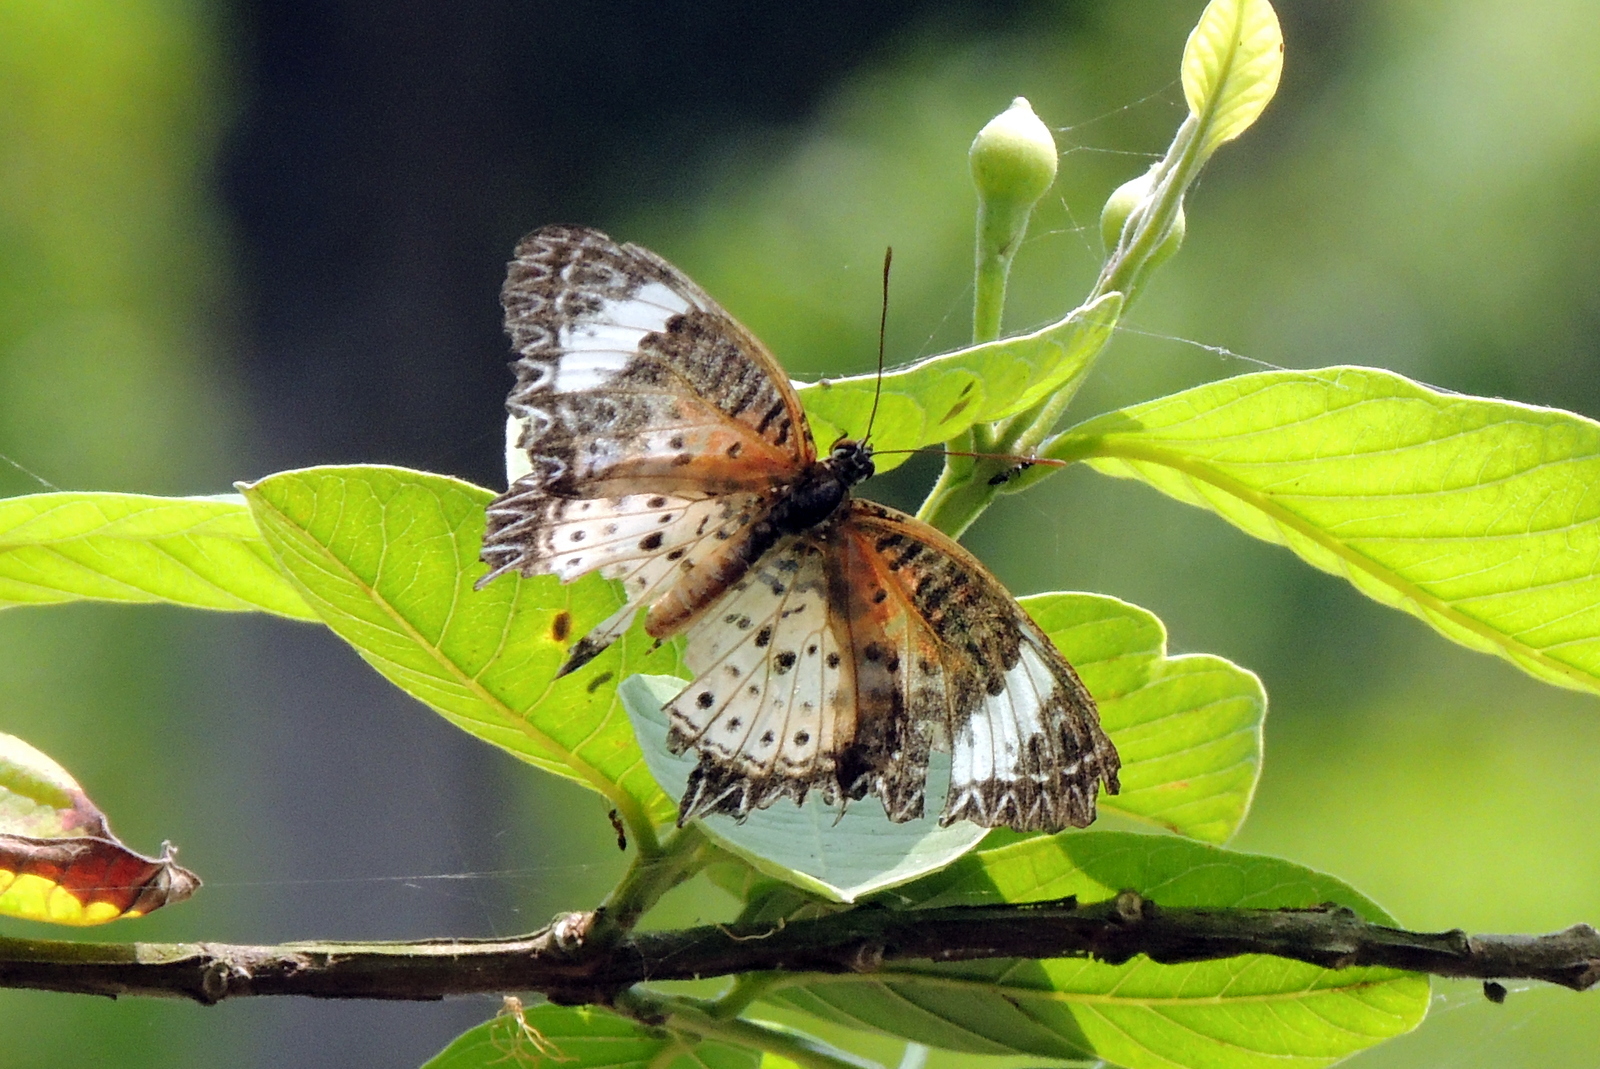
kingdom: Animalia
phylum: Arthropoda
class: Insecta
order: Lepidoptera
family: Nymphalidae
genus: Cethosia
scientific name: Cethosia cyane
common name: Leopard lacewing butterfly
